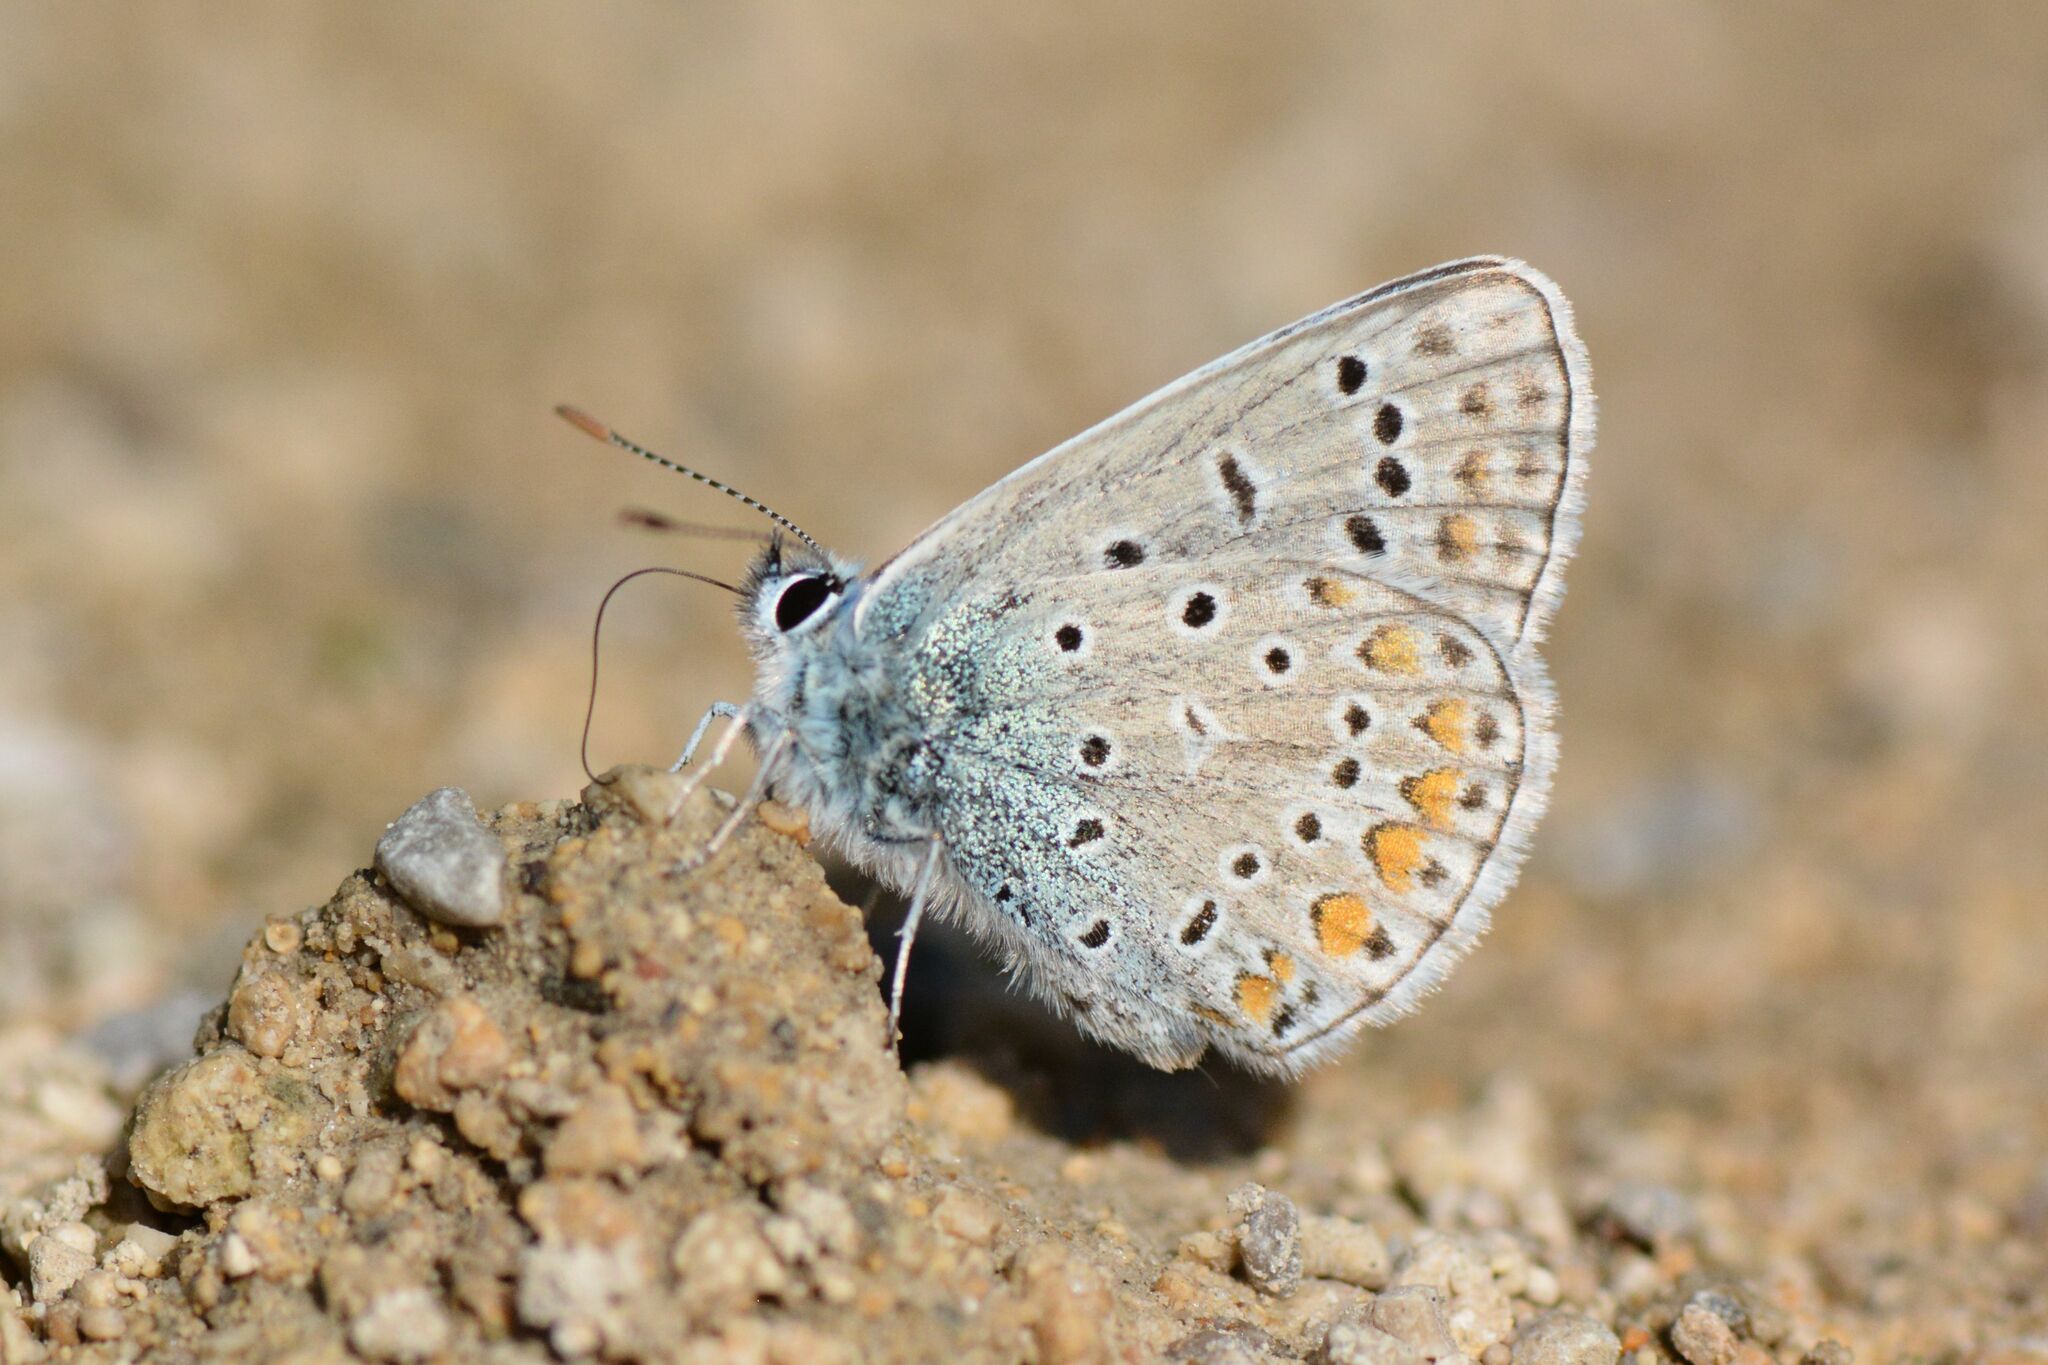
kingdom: Animalia
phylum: Arthropoda
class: Insecta
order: Lepidoptera
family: Lycaenidae
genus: Polyommatus
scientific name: Polyommatus icarus
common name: Common blue
